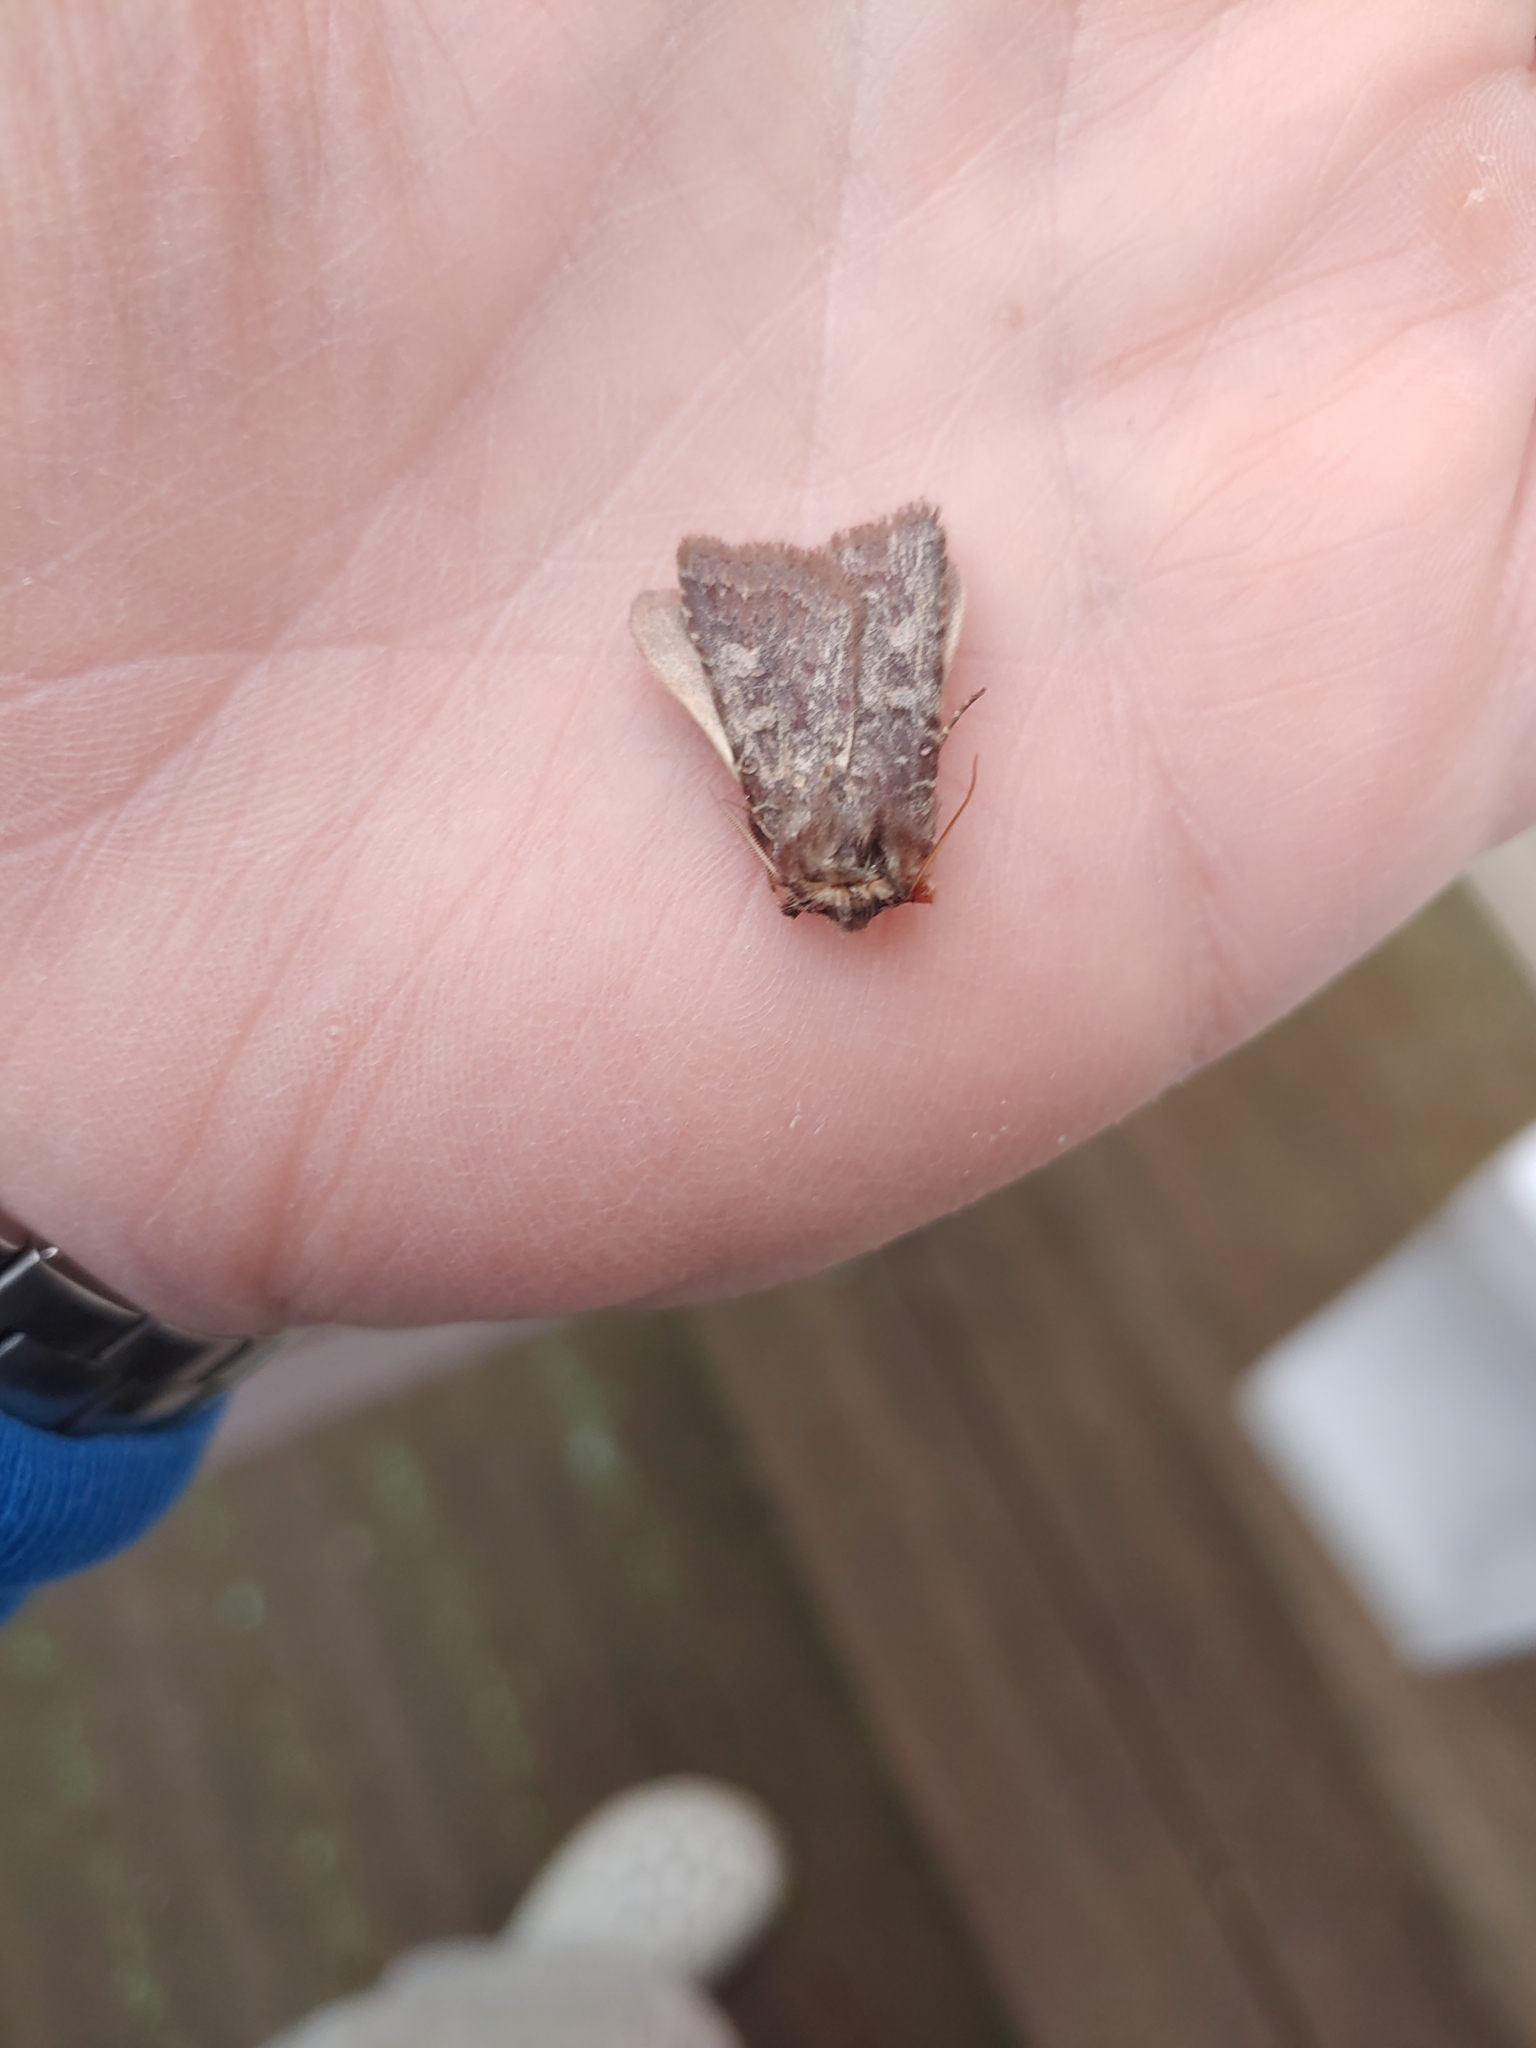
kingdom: Animalia
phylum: Arthropoda
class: Insecta
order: Lepidoptera
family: Noctuidae
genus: Cerastis
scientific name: Cerastis tenebrifera
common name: Reddish speckled dart
